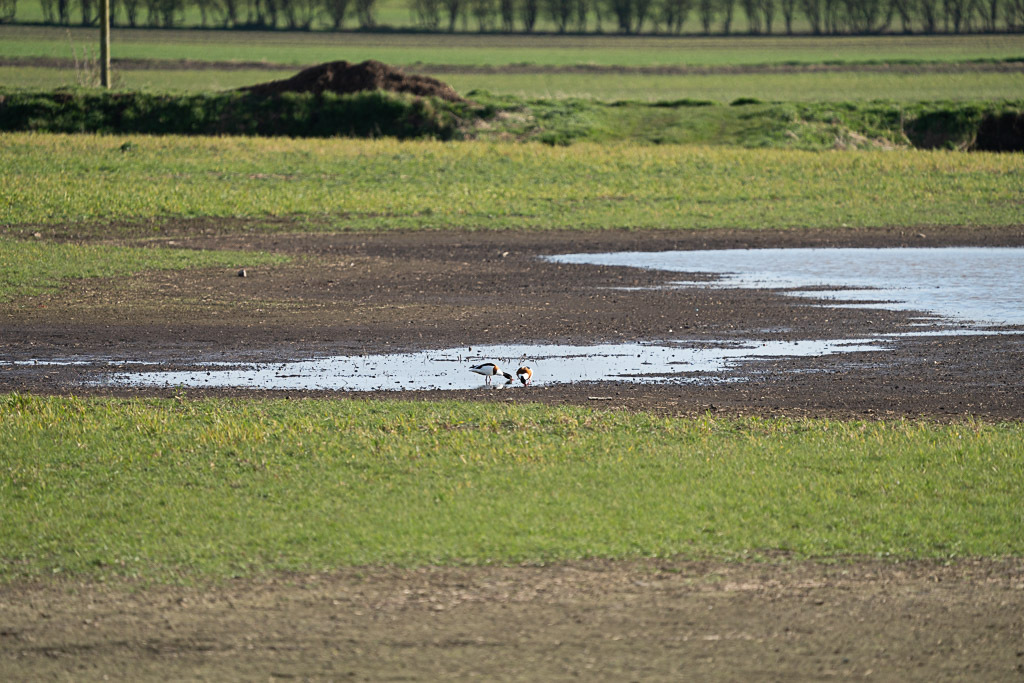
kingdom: Animalia
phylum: Chordata
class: Aves
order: Anseriformes
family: Anatidae
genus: Tadorna
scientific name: Tadorna tadorna
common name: Common shelduck
